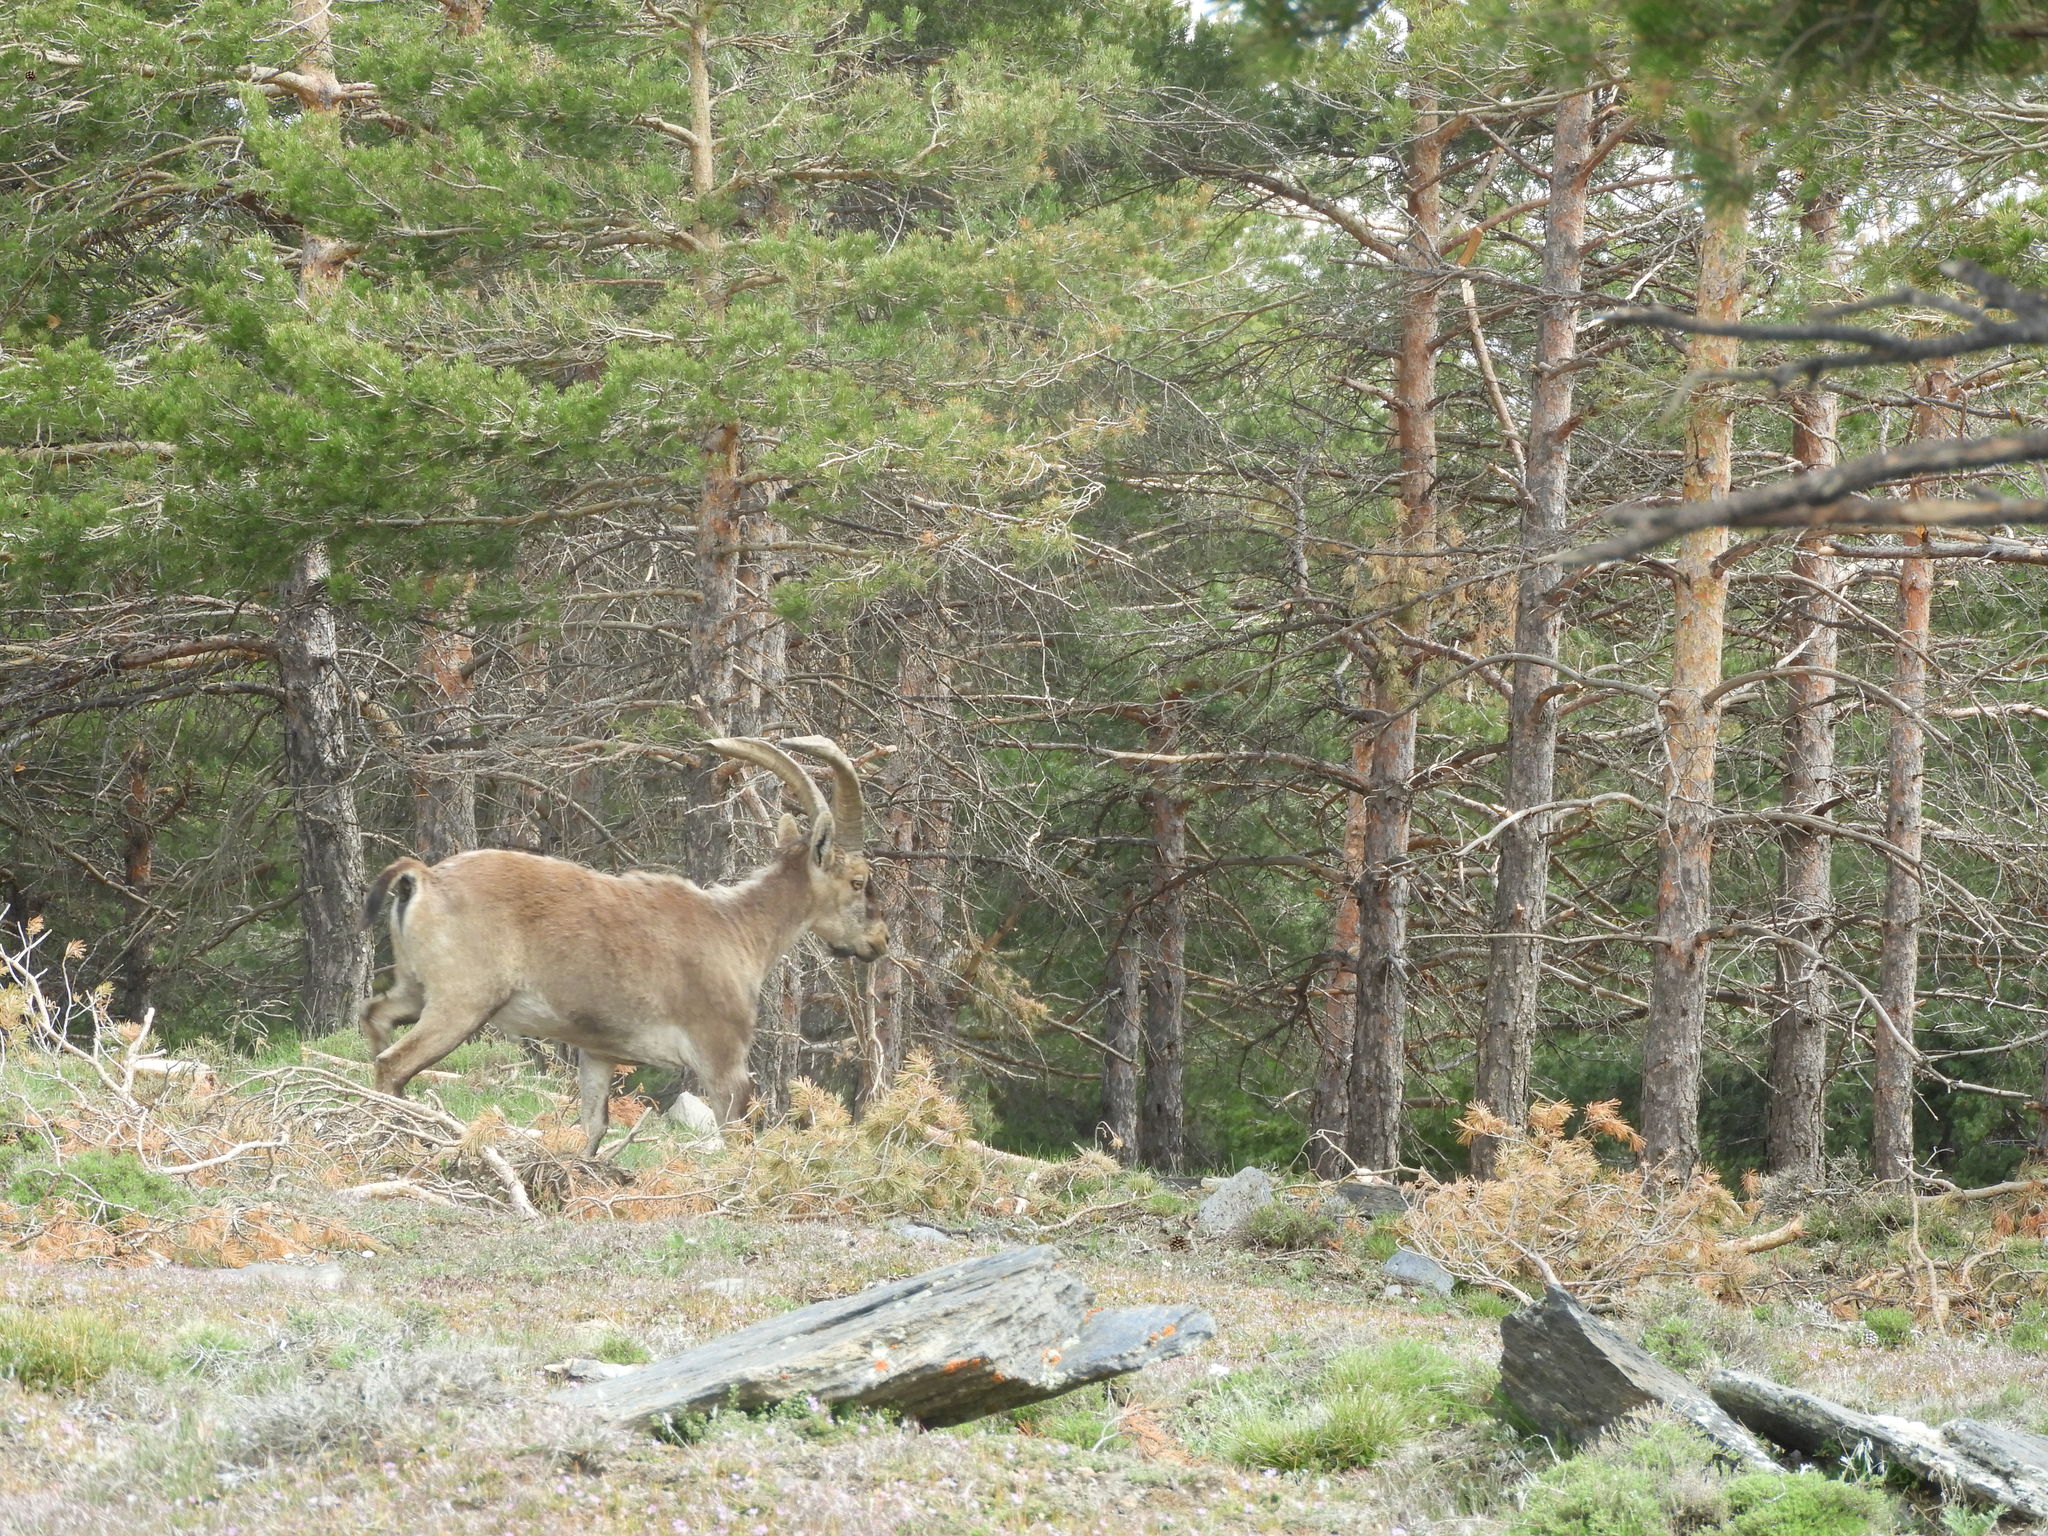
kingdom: Animalia
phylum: Chordata
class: Mammalia
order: Artiodactyla
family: Bovidae
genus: Capra
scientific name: Capra pyrenaica
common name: Spanish ibex
